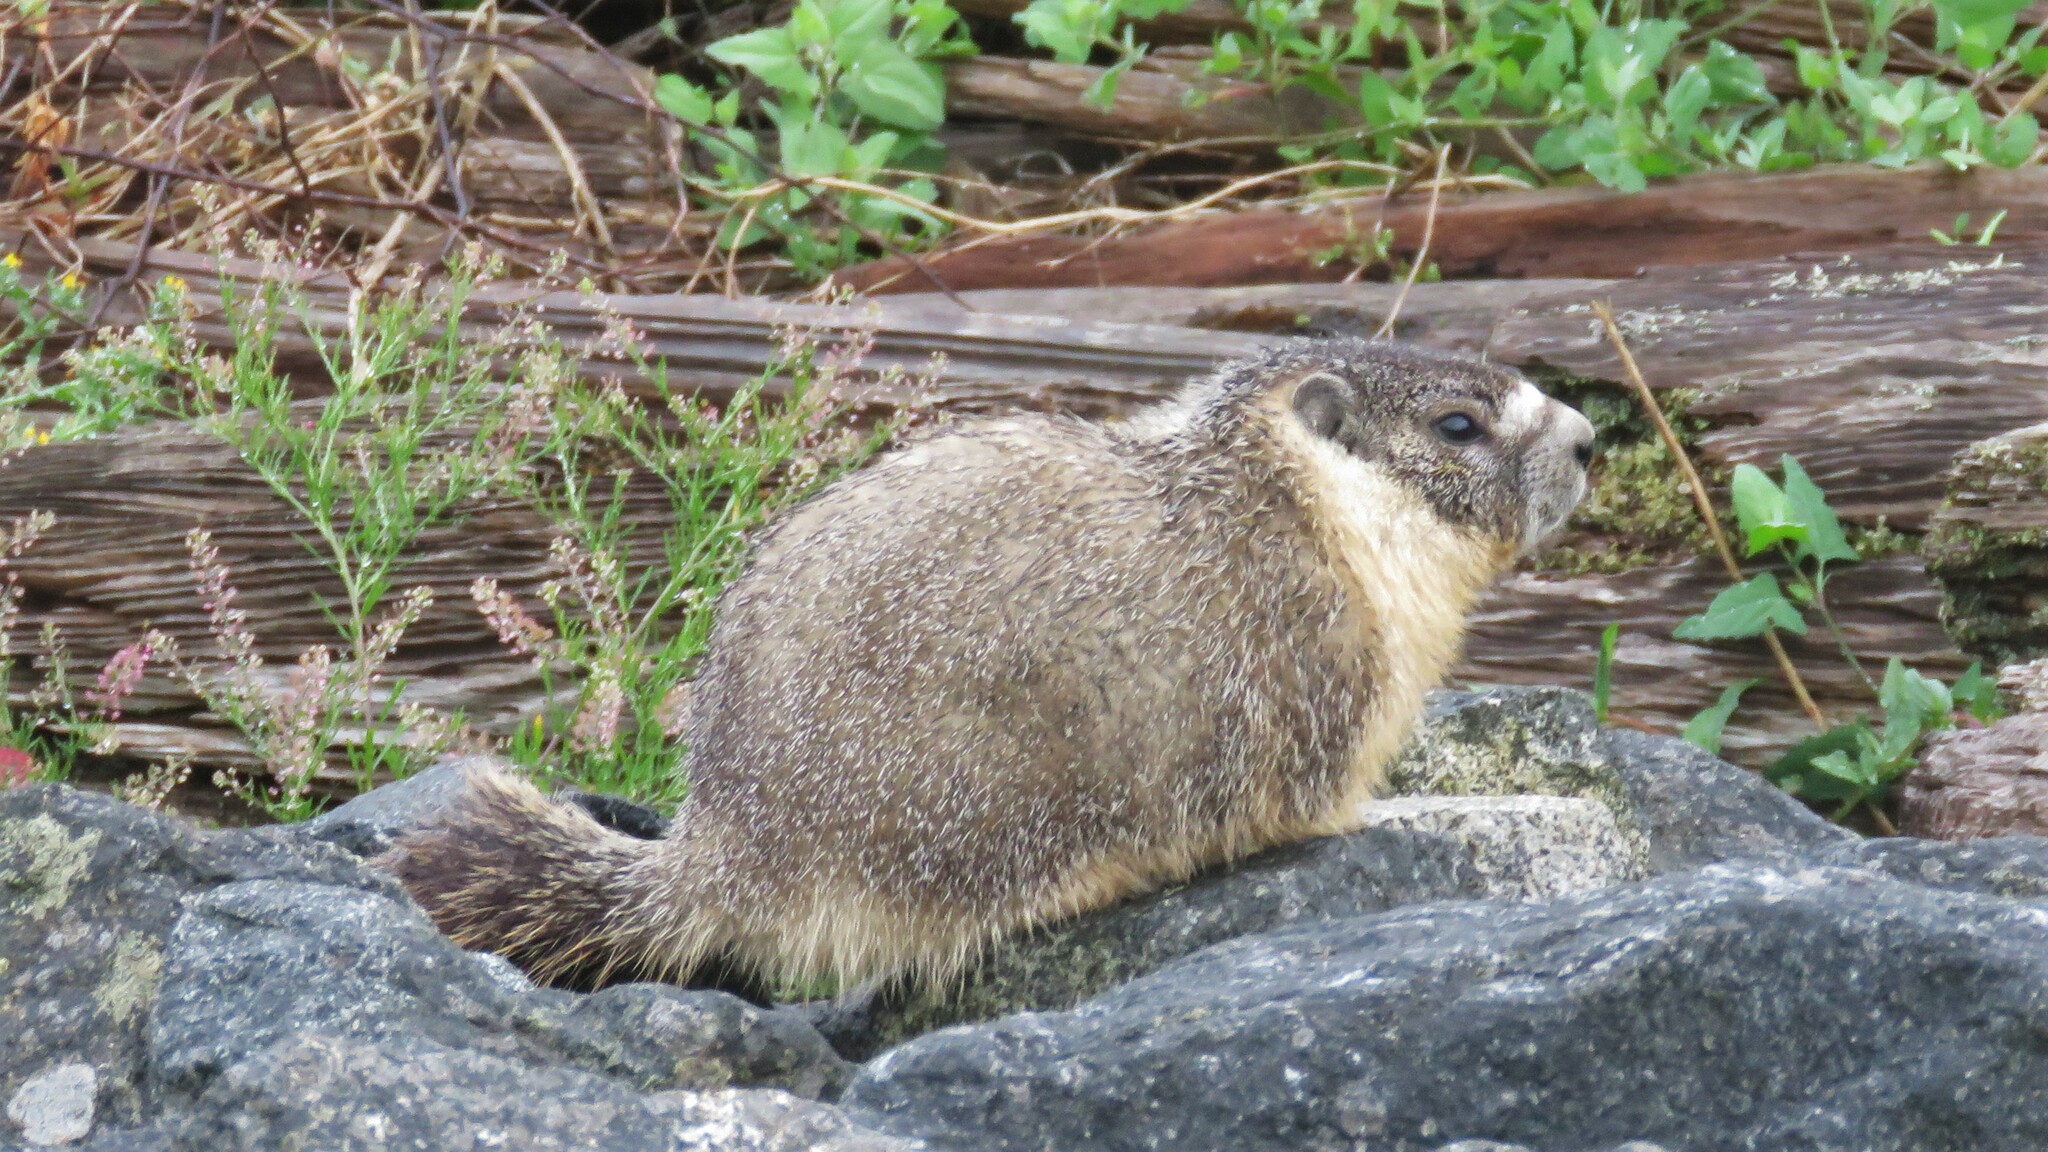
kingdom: Animalia
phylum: Chordata
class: Mammalia
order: Rodentia
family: Sciuridae
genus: Marmota
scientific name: Marmota flaviventris
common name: Yellow-bellied marmot
